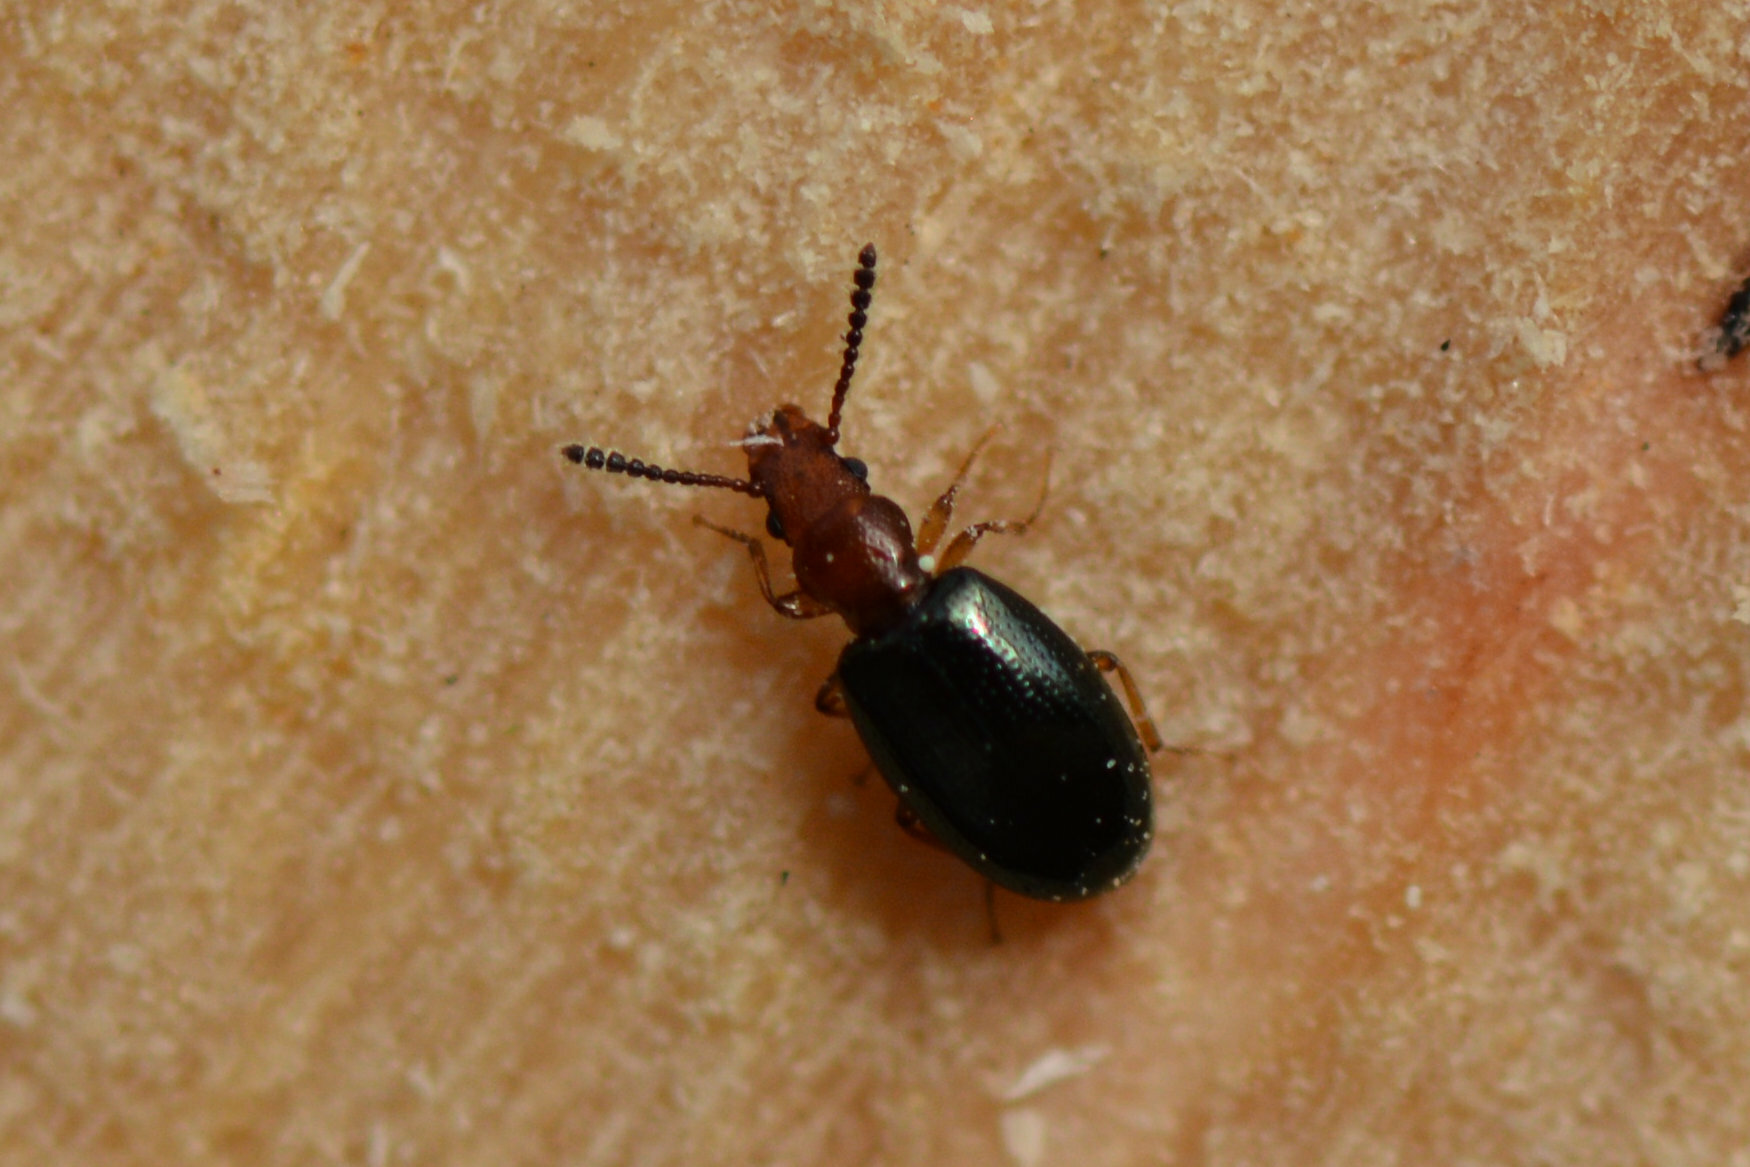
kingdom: Animalia
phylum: Arthropoda
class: Insecta
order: Coleoptera
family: Salpingidae
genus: Vincenzellus
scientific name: Vincenzellus ruficollis
